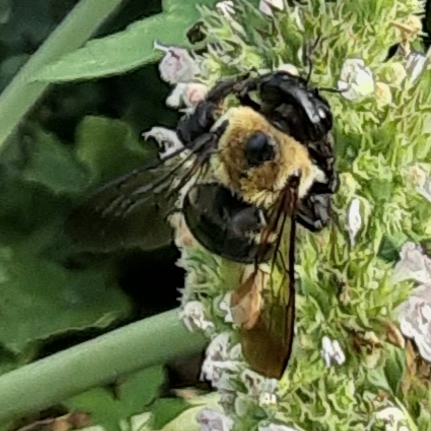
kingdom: Animalia
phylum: Arthropoda
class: Insecta
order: Hymenoptera
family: Apidae
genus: Xylocopa
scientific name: Xylocopa virginica
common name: Carpenter bee
